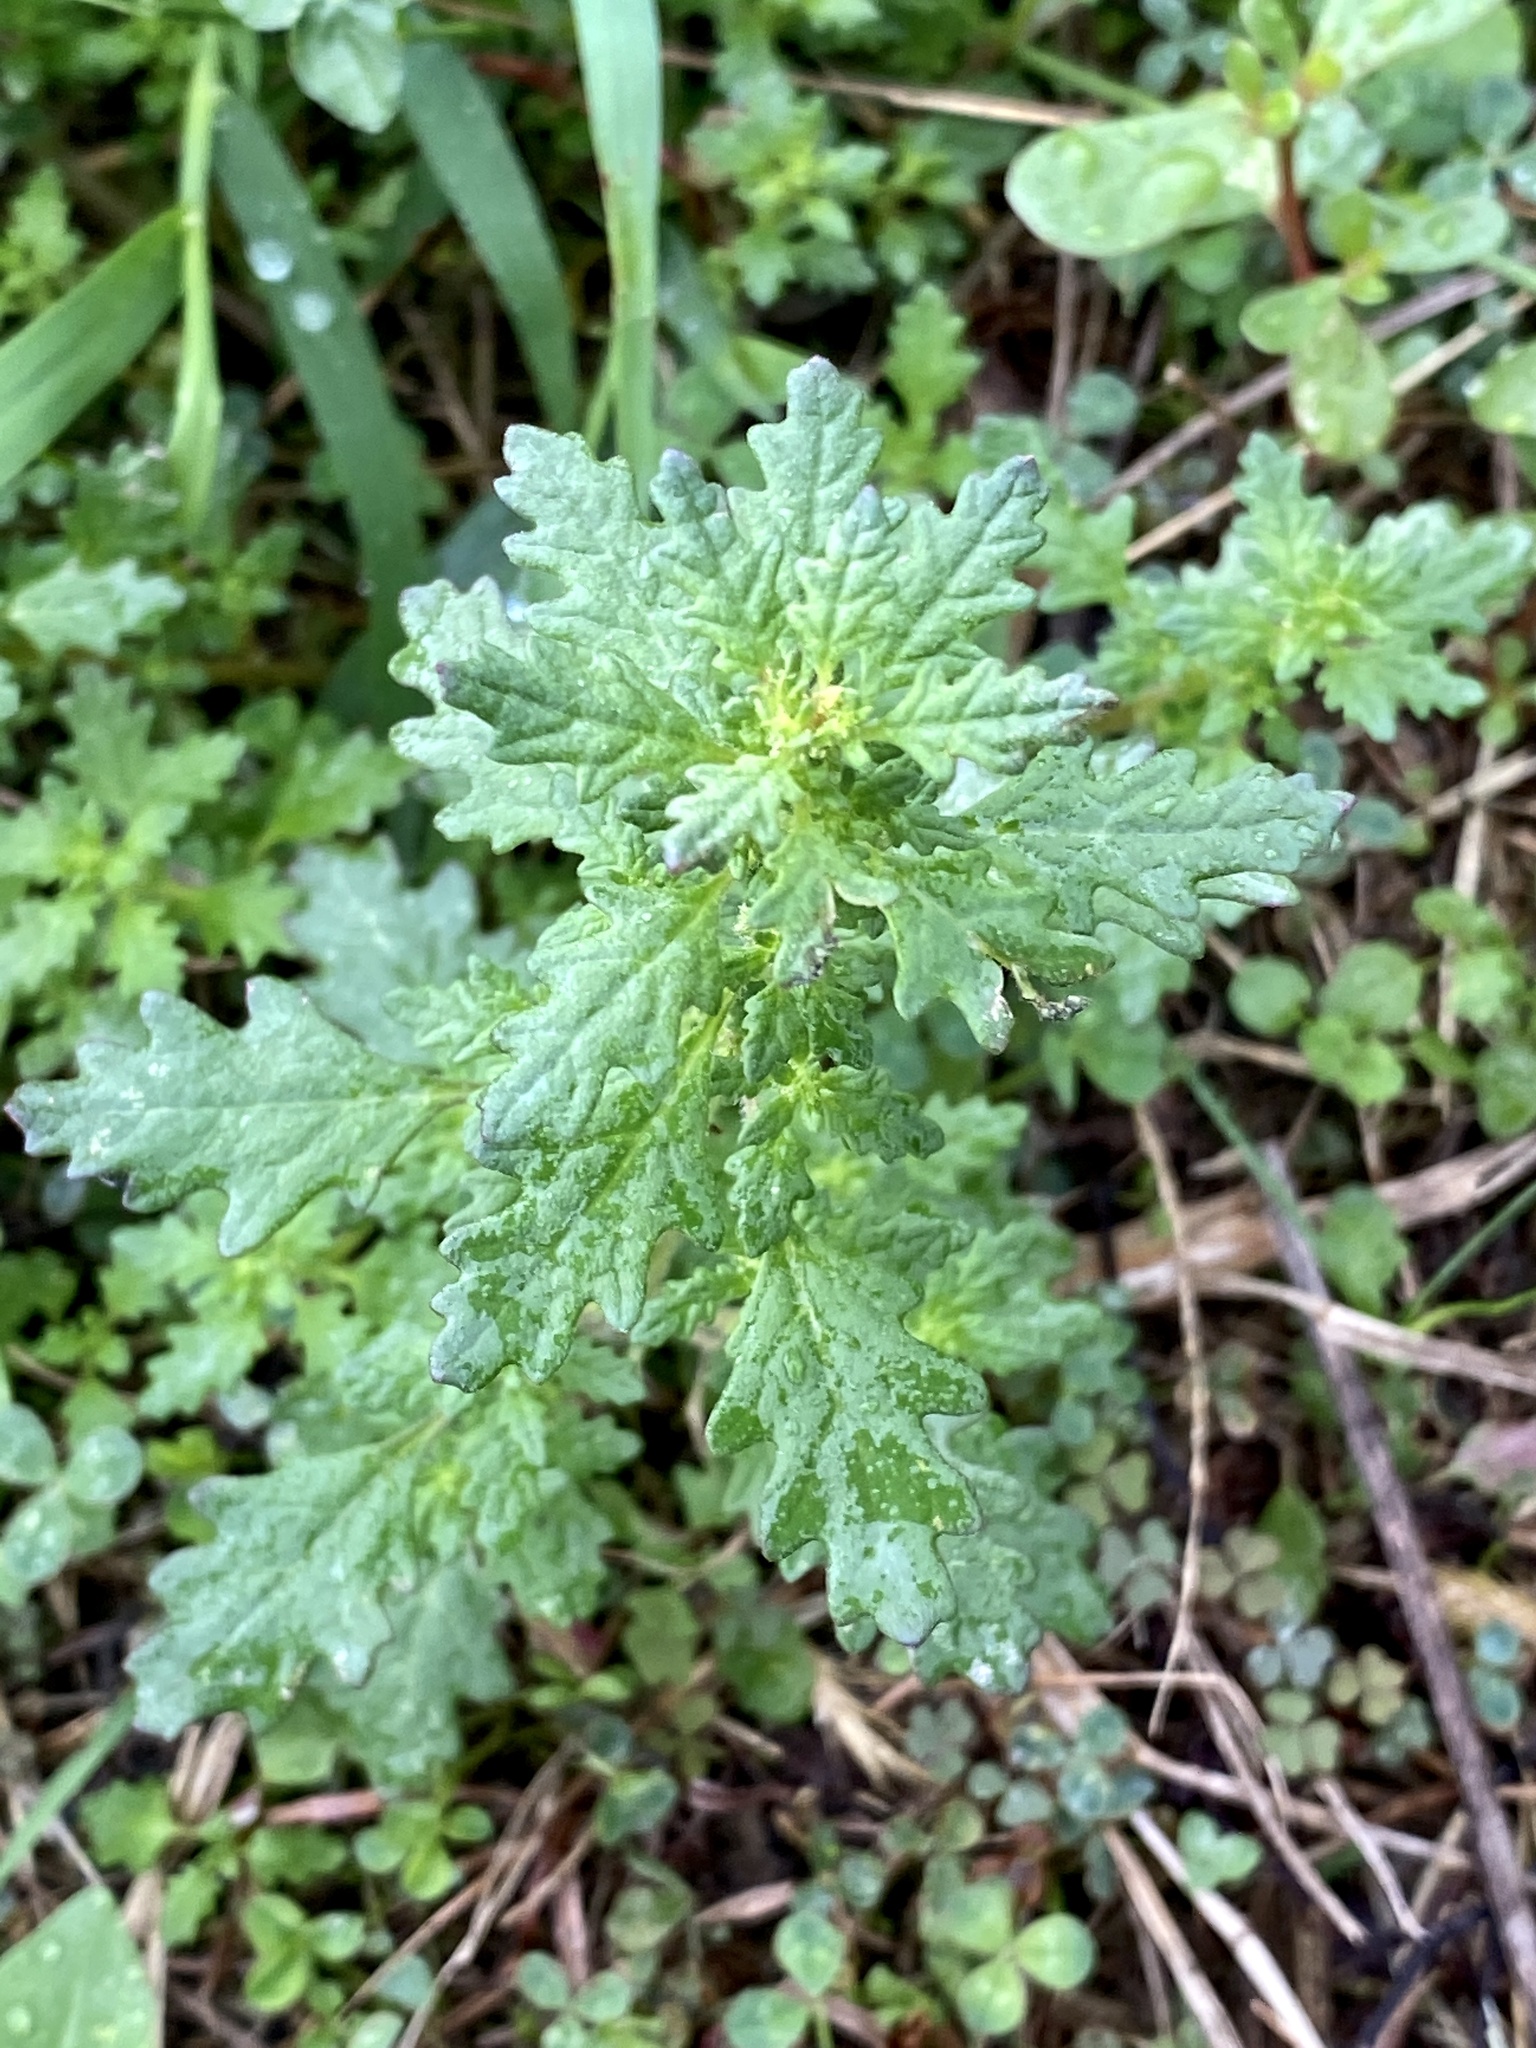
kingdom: Plantae
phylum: Tracheophyta
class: Magnoliopsida
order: Caryophyllales
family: Amaranthaceae
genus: Dysphania
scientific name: Dysphania pumilio
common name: Clammy goosefoot
